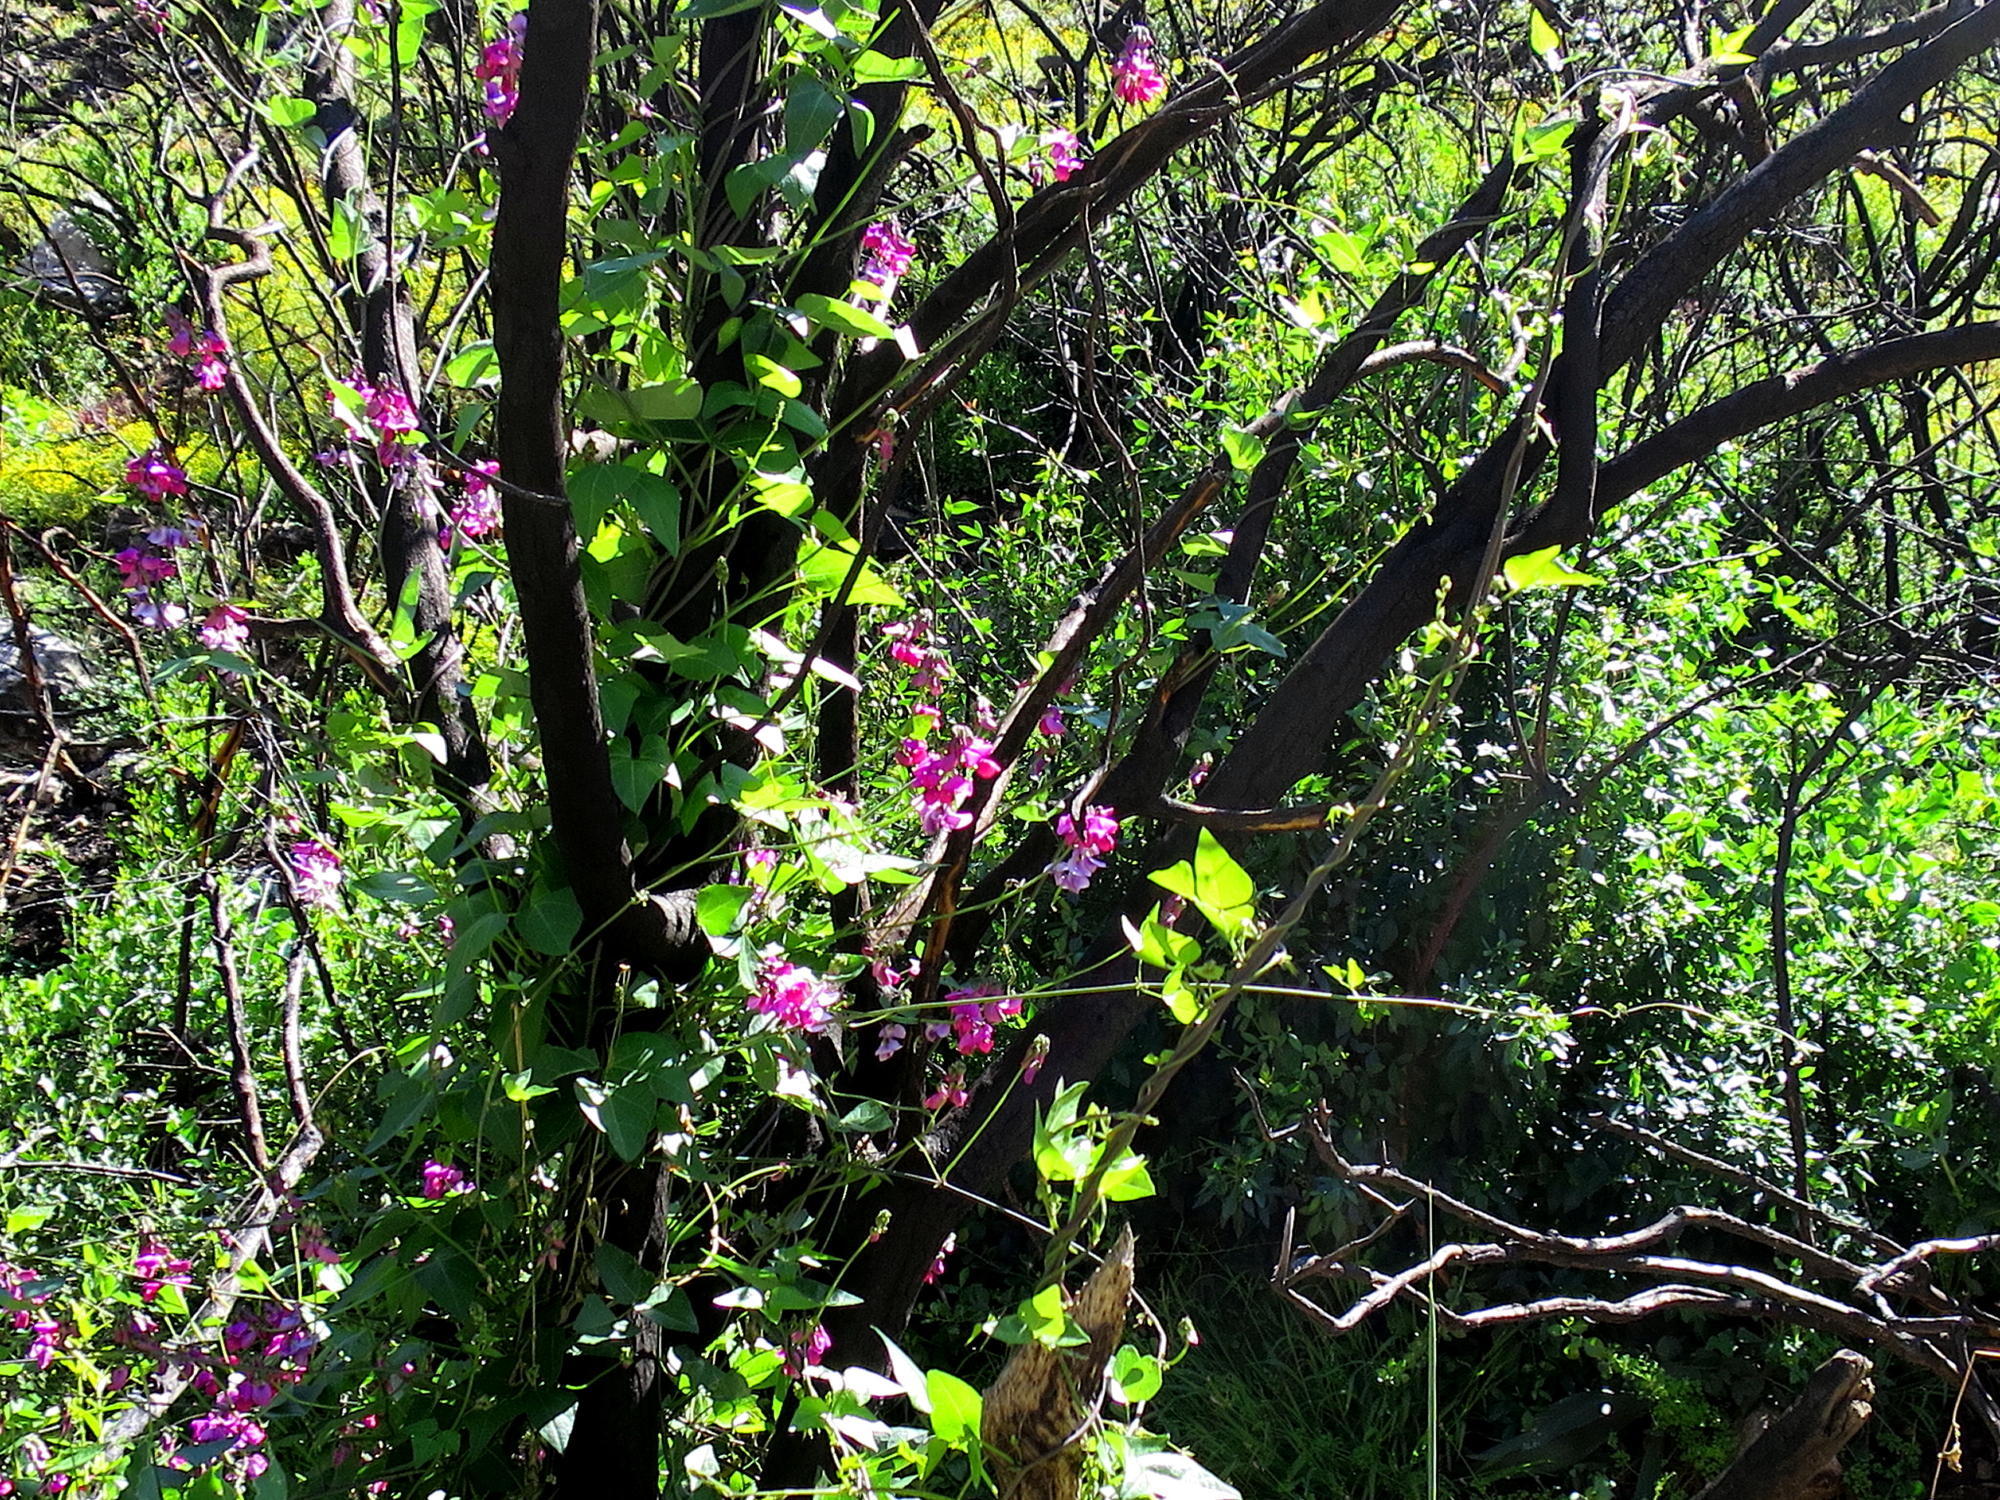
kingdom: Plantae
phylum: Tracheophyta
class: Magnoliopsida
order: Fabales
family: Fabaceae
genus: Dipogon
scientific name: Dipogon lignosus
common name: Okie bean
